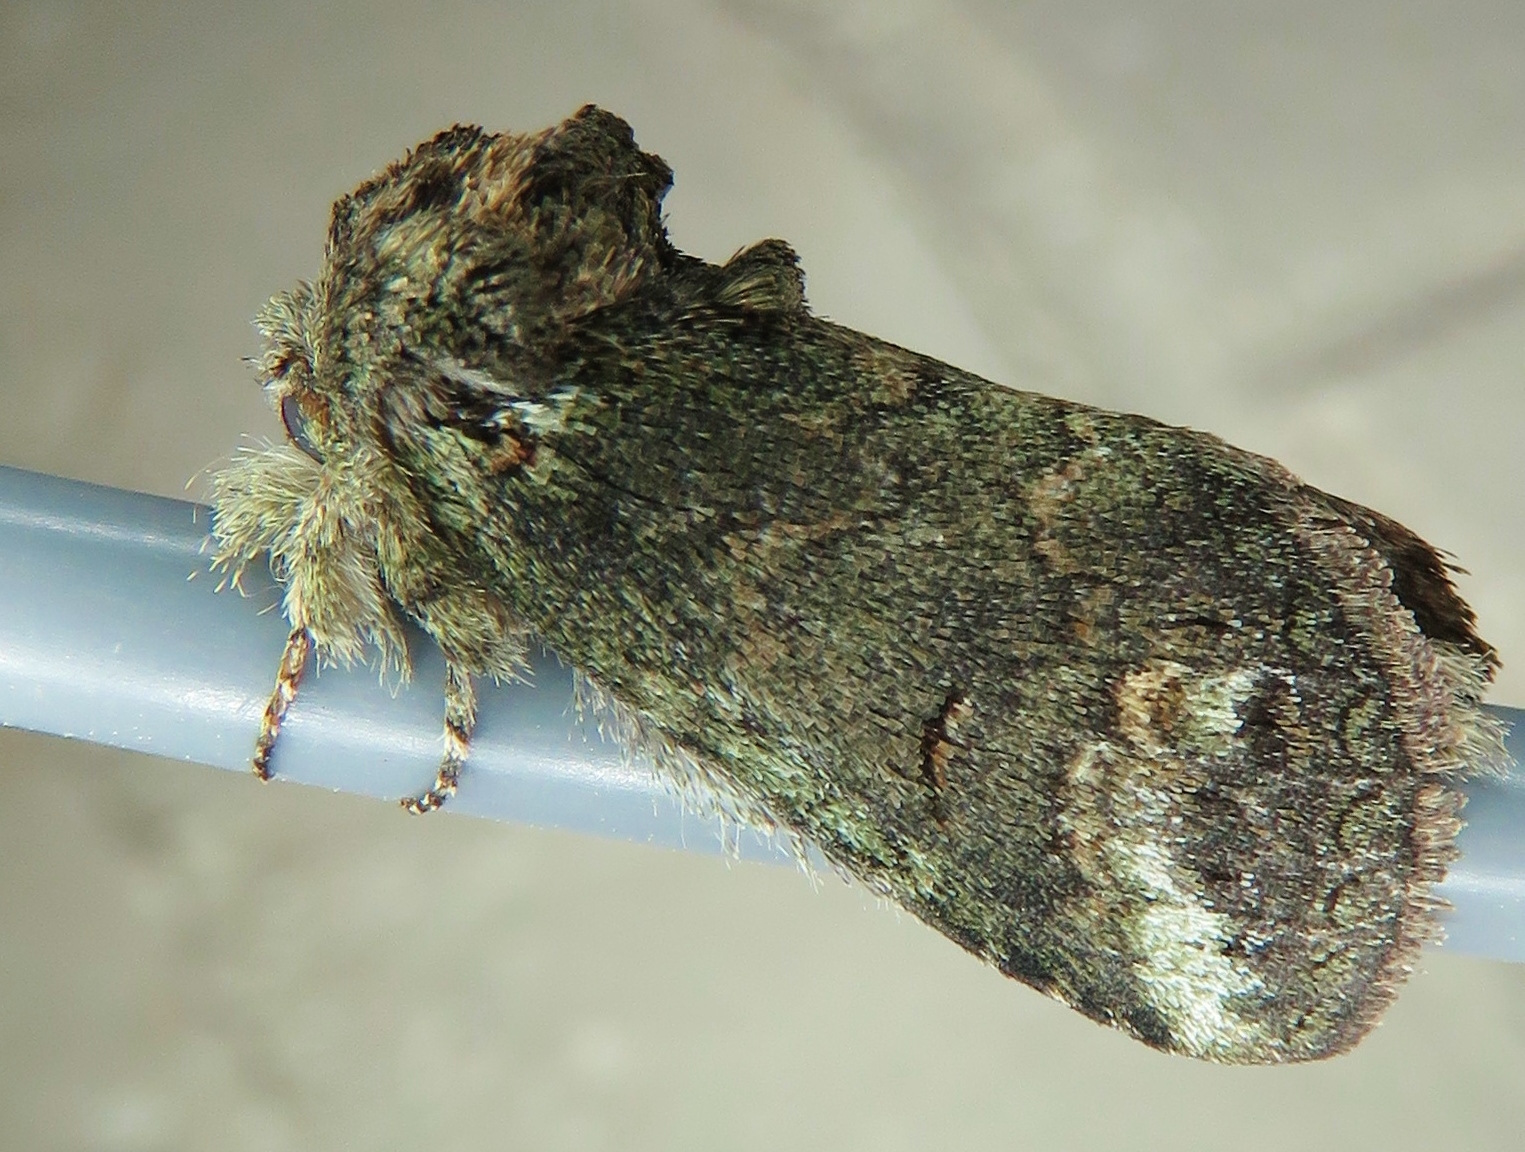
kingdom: Animalia
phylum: Arthropoda
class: Insecta
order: Lepidoptera
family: Notodontidae
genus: Rifargia
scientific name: Rifargia
